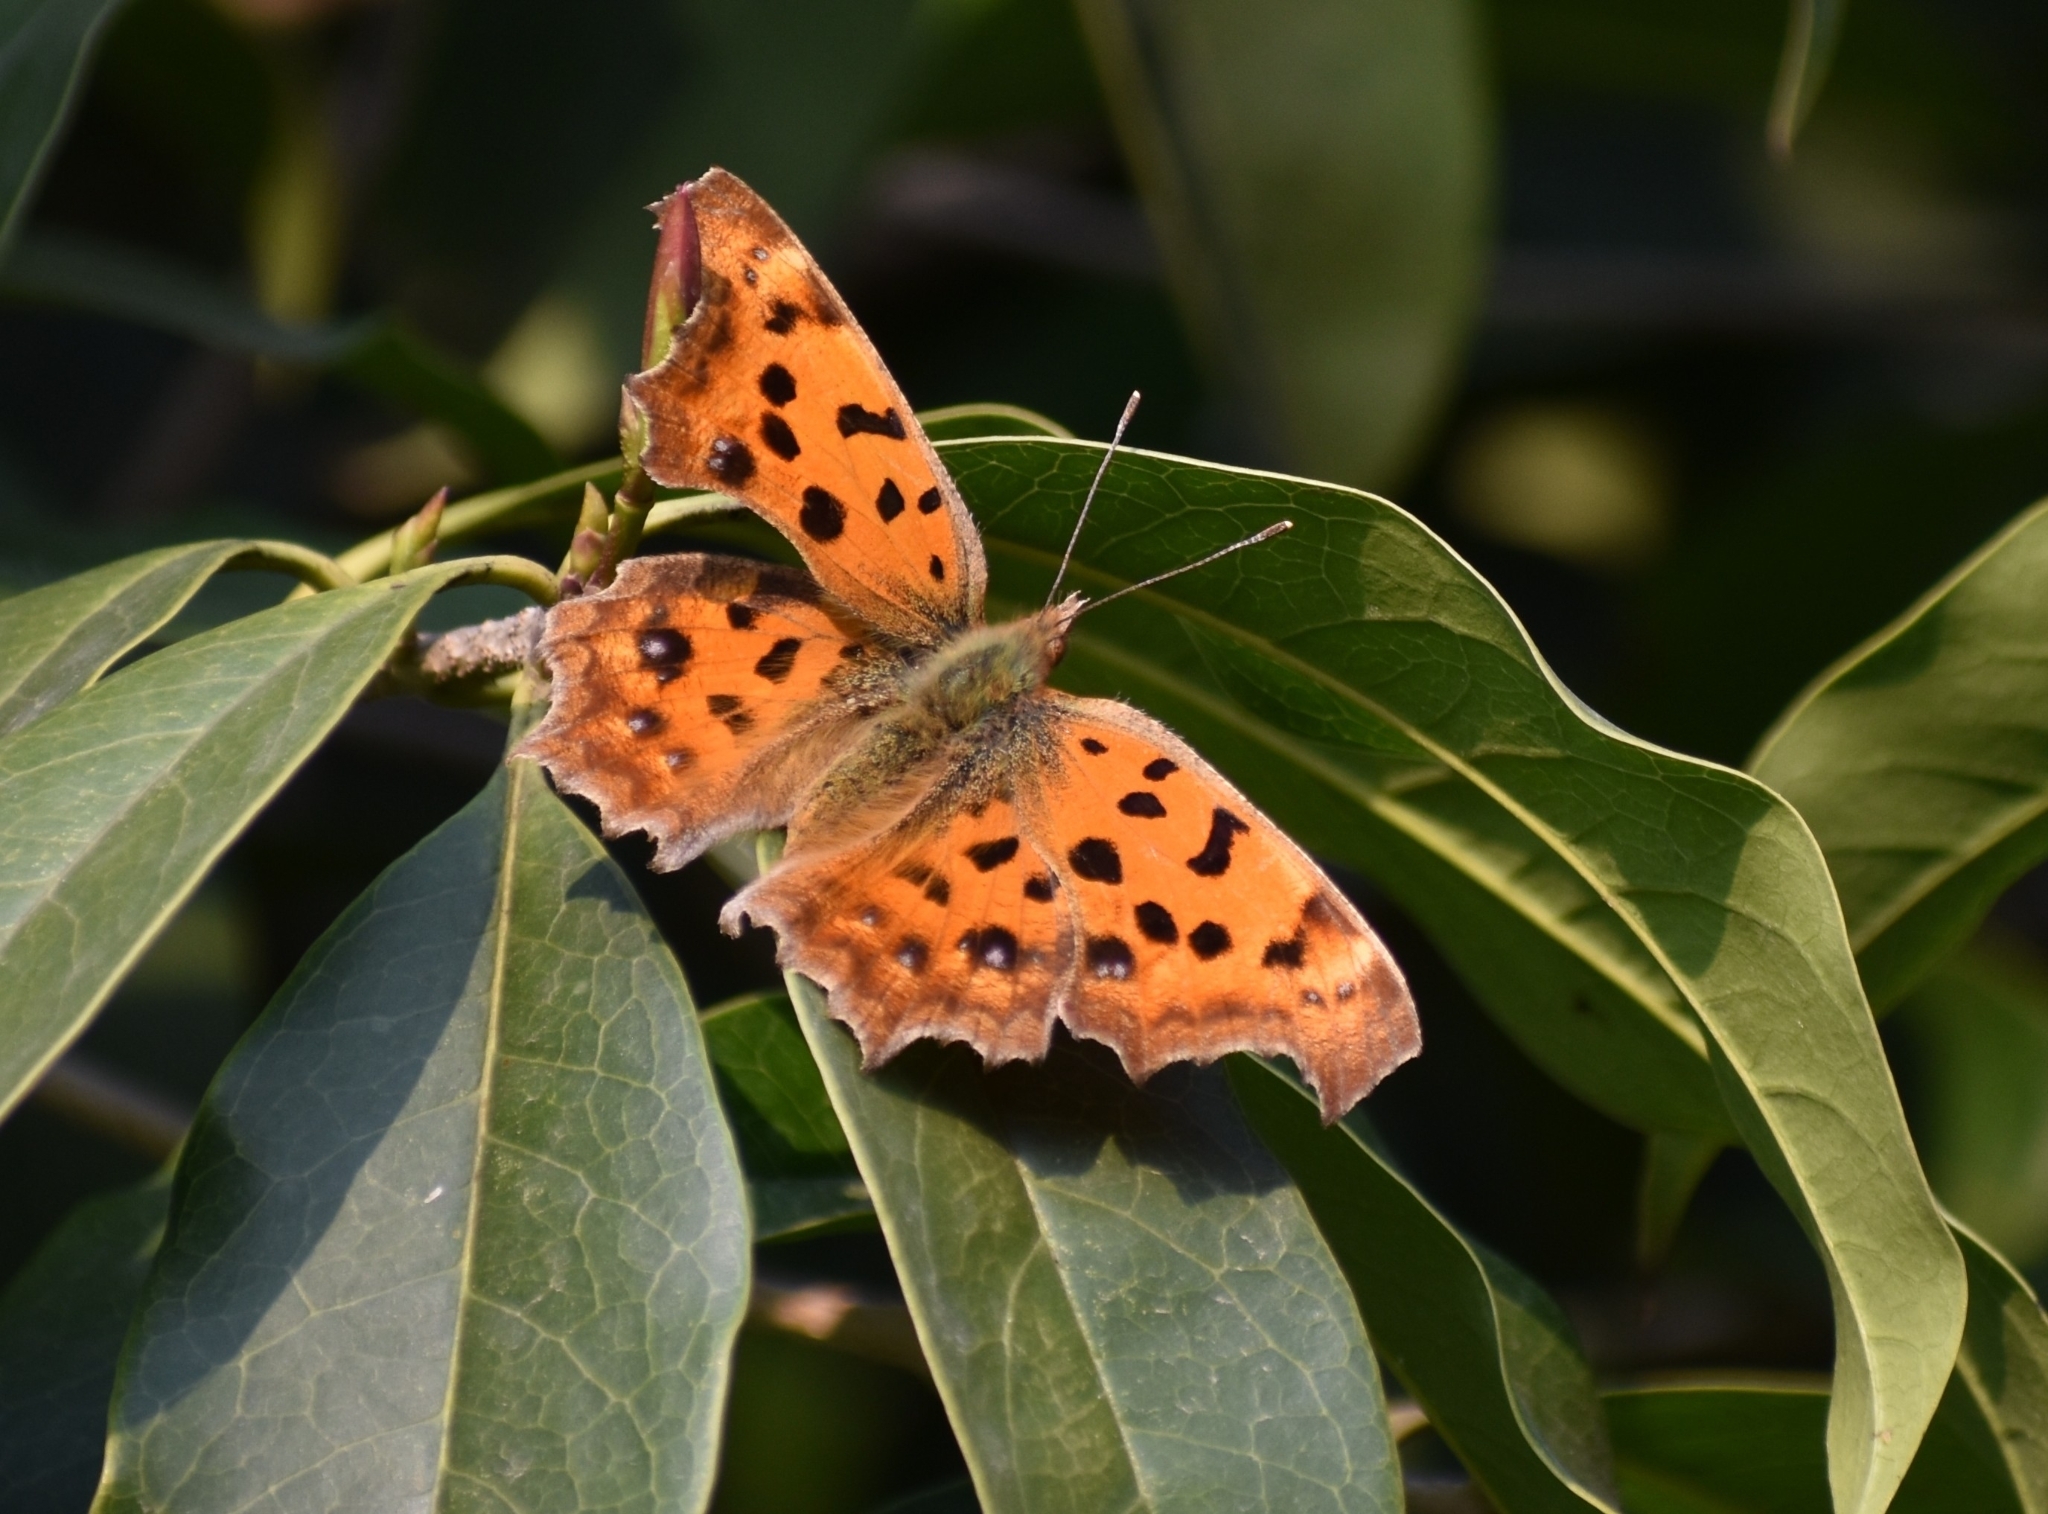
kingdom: Animalia
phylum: Arthropoda
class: Insecta
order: Lepidoptera
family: Nymphalidae
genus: Polygonia
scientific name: Polygonia c-aureum
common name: Asian comma
